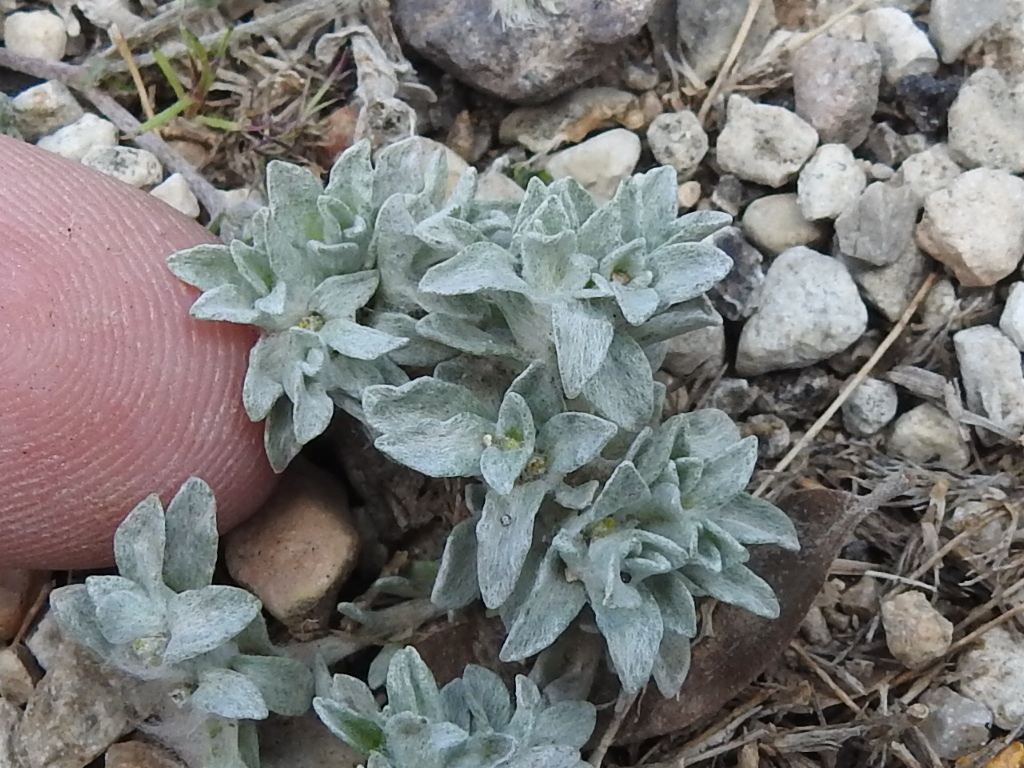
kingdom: Plantae
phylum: Tracheophyta
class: Magnoliopsida
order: Asterales
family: Asteraceae
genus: Diaperia
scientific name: Diaperia prolifera
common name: Big-head rabbit-tobacco
